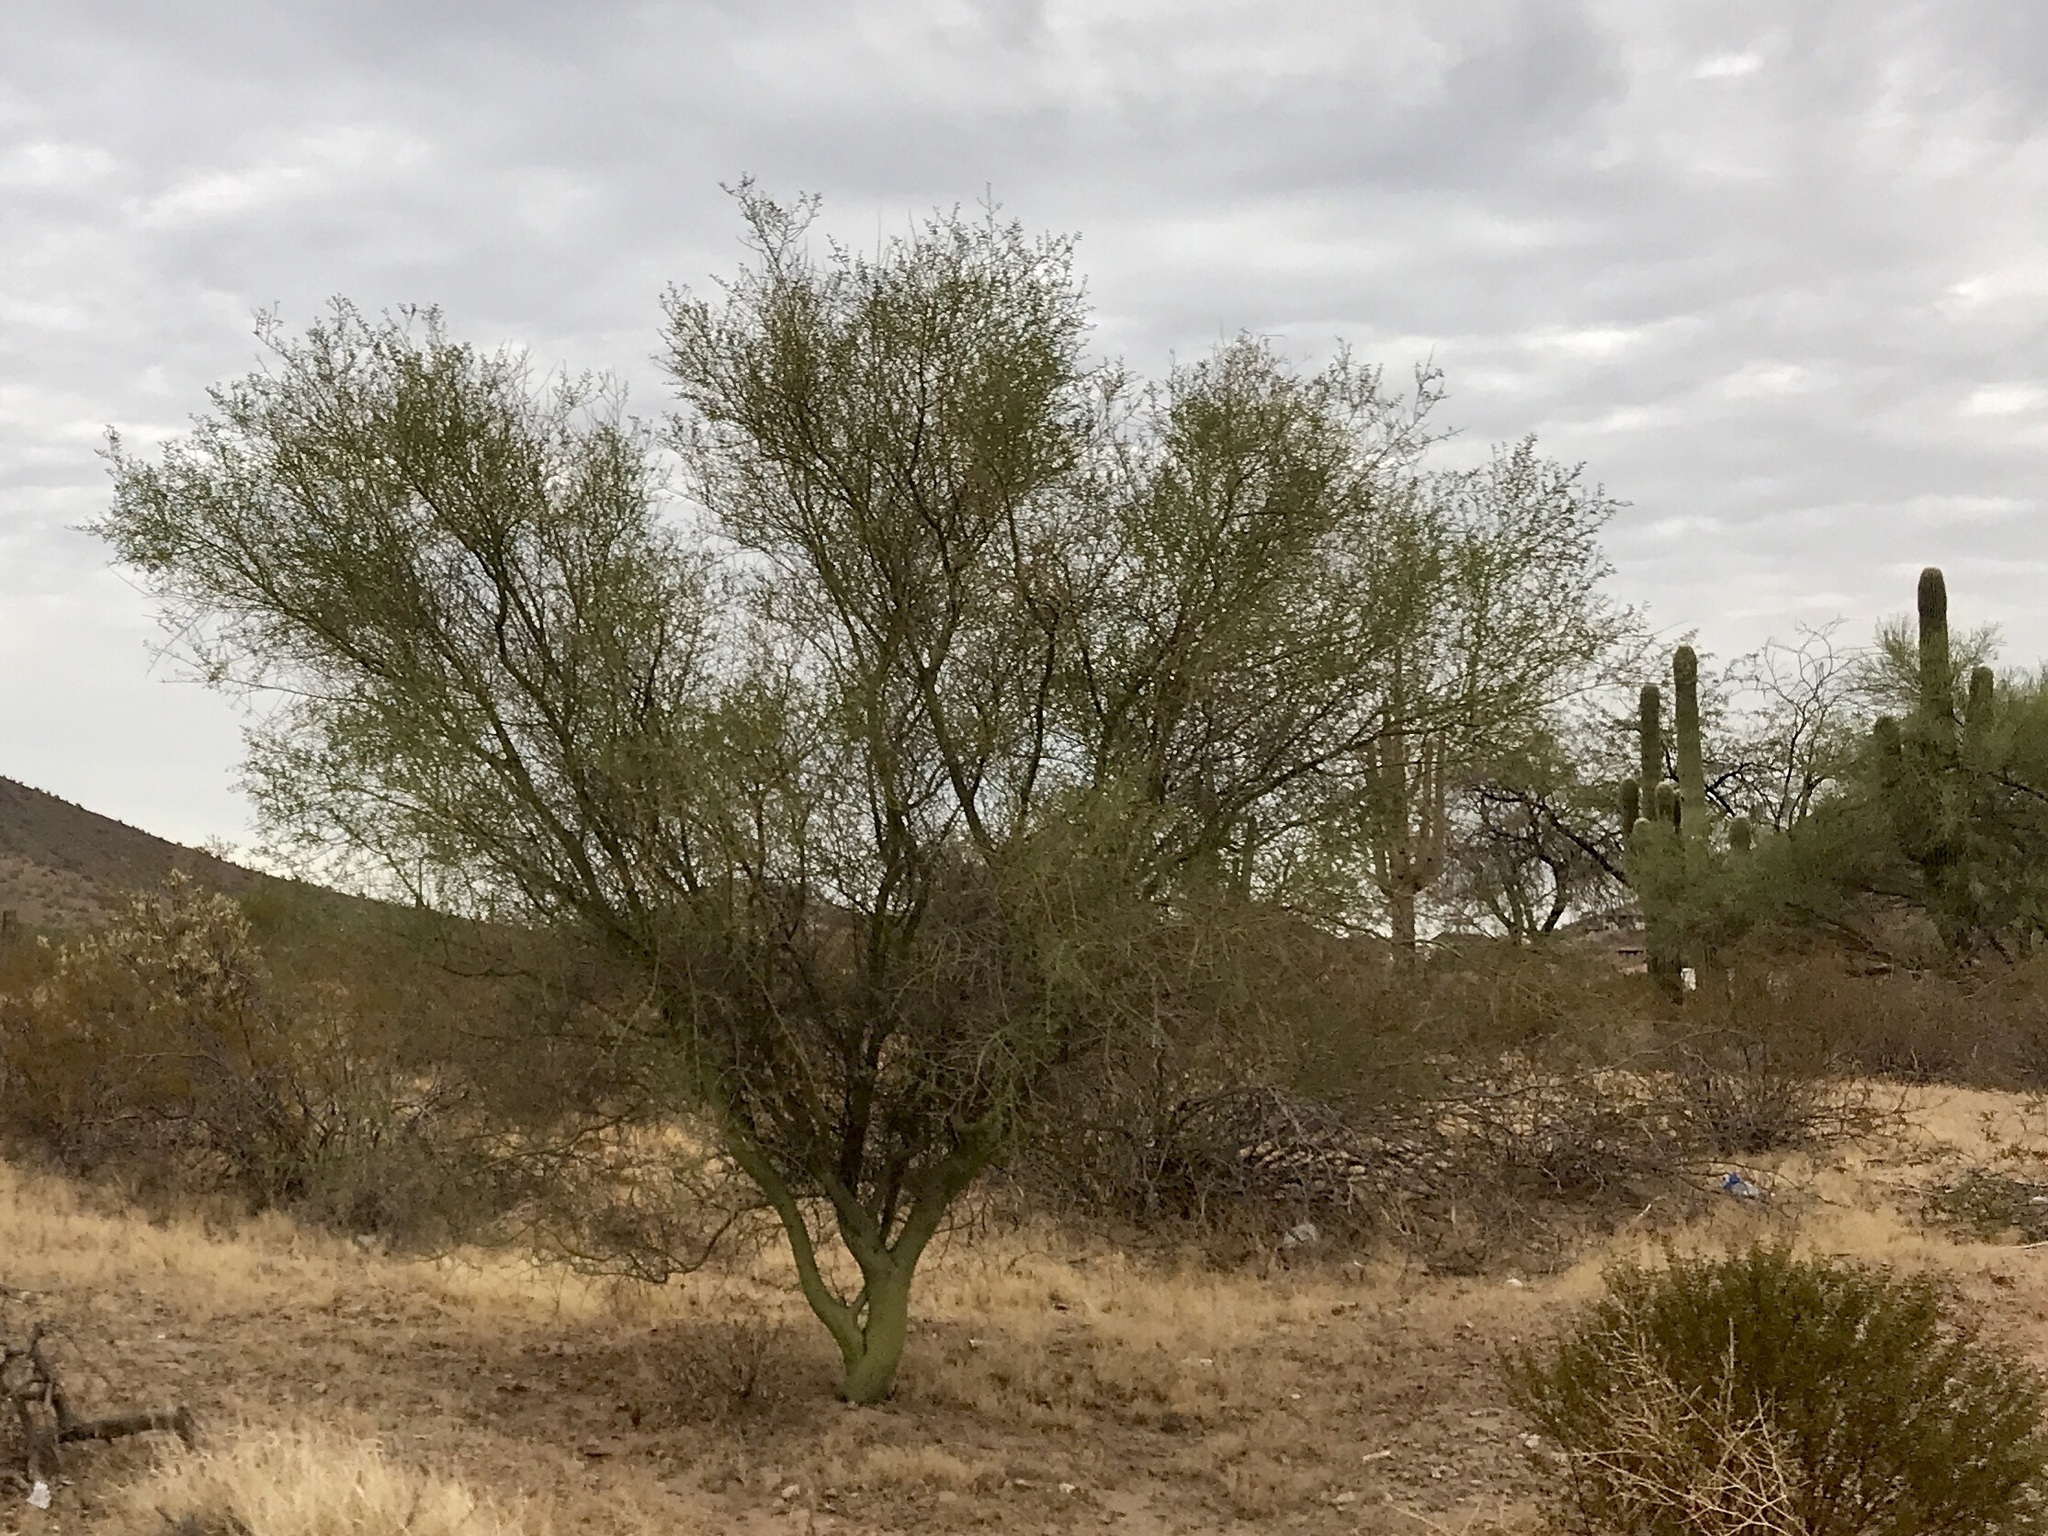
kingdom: Plantae
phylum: Tracheophyta
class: Magnoliopsida
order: Fabales
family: Fabaceae
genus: Parkinsonia
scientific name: Parkinsonia florida
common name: Blue paloverde
